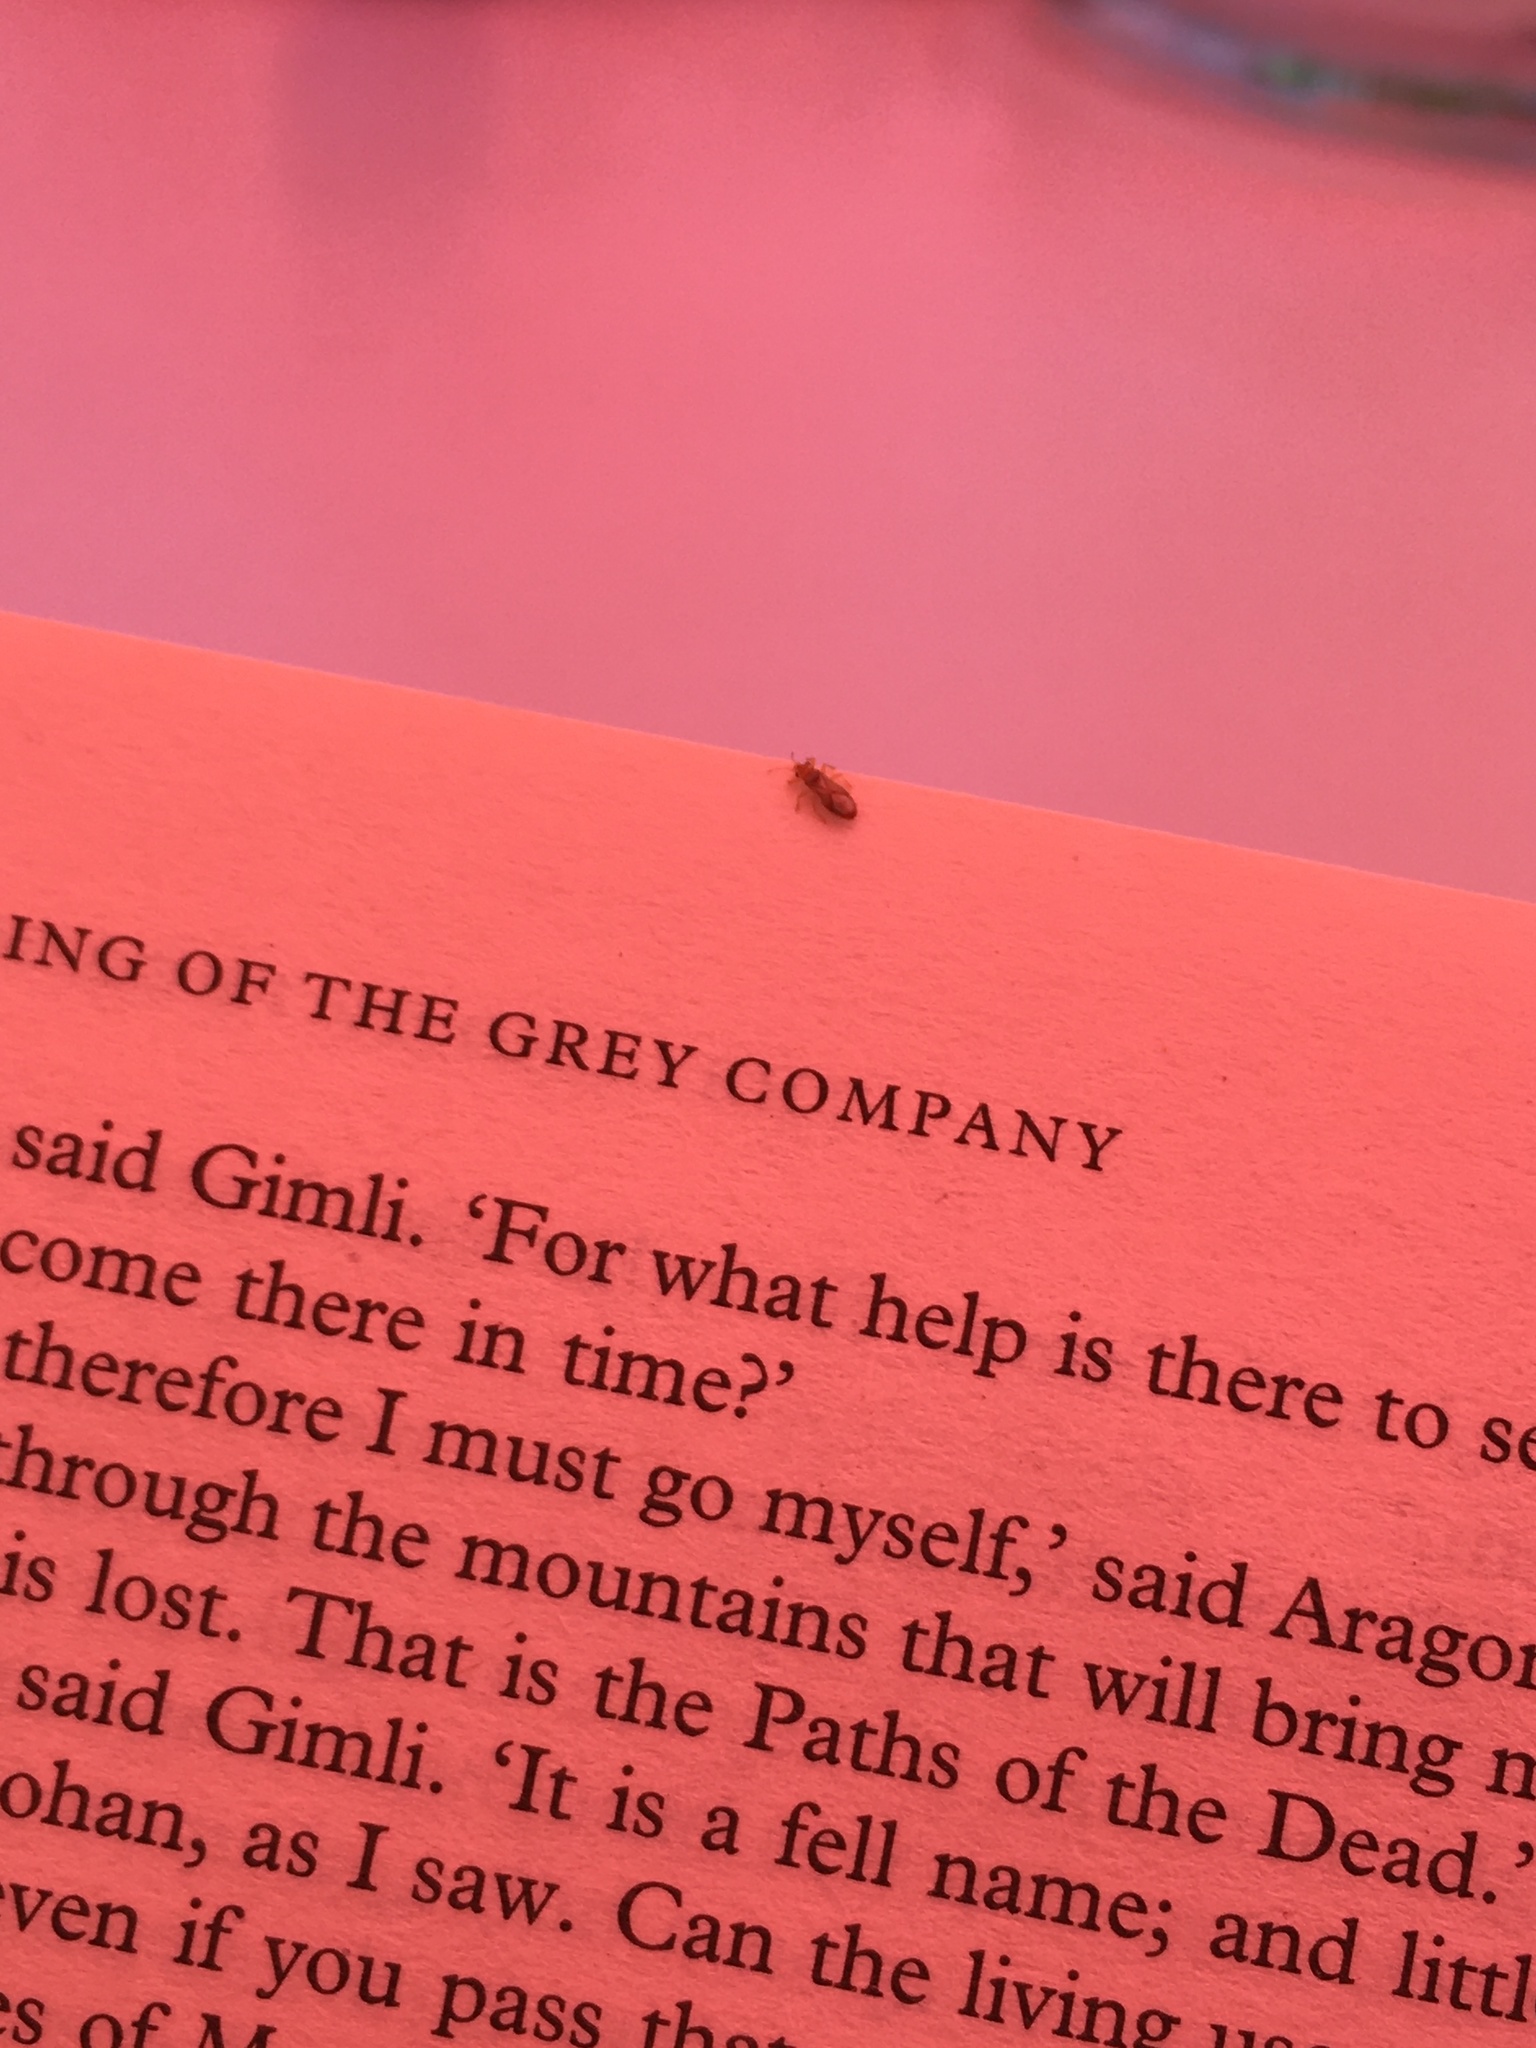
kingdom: Animalia
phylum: Arthropoda
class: Insecta
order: Hemiptera
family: Thaumastocoridae
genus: Thaumastocoris
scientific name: Thaumastocoris peregrinus
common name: Bronze bug
